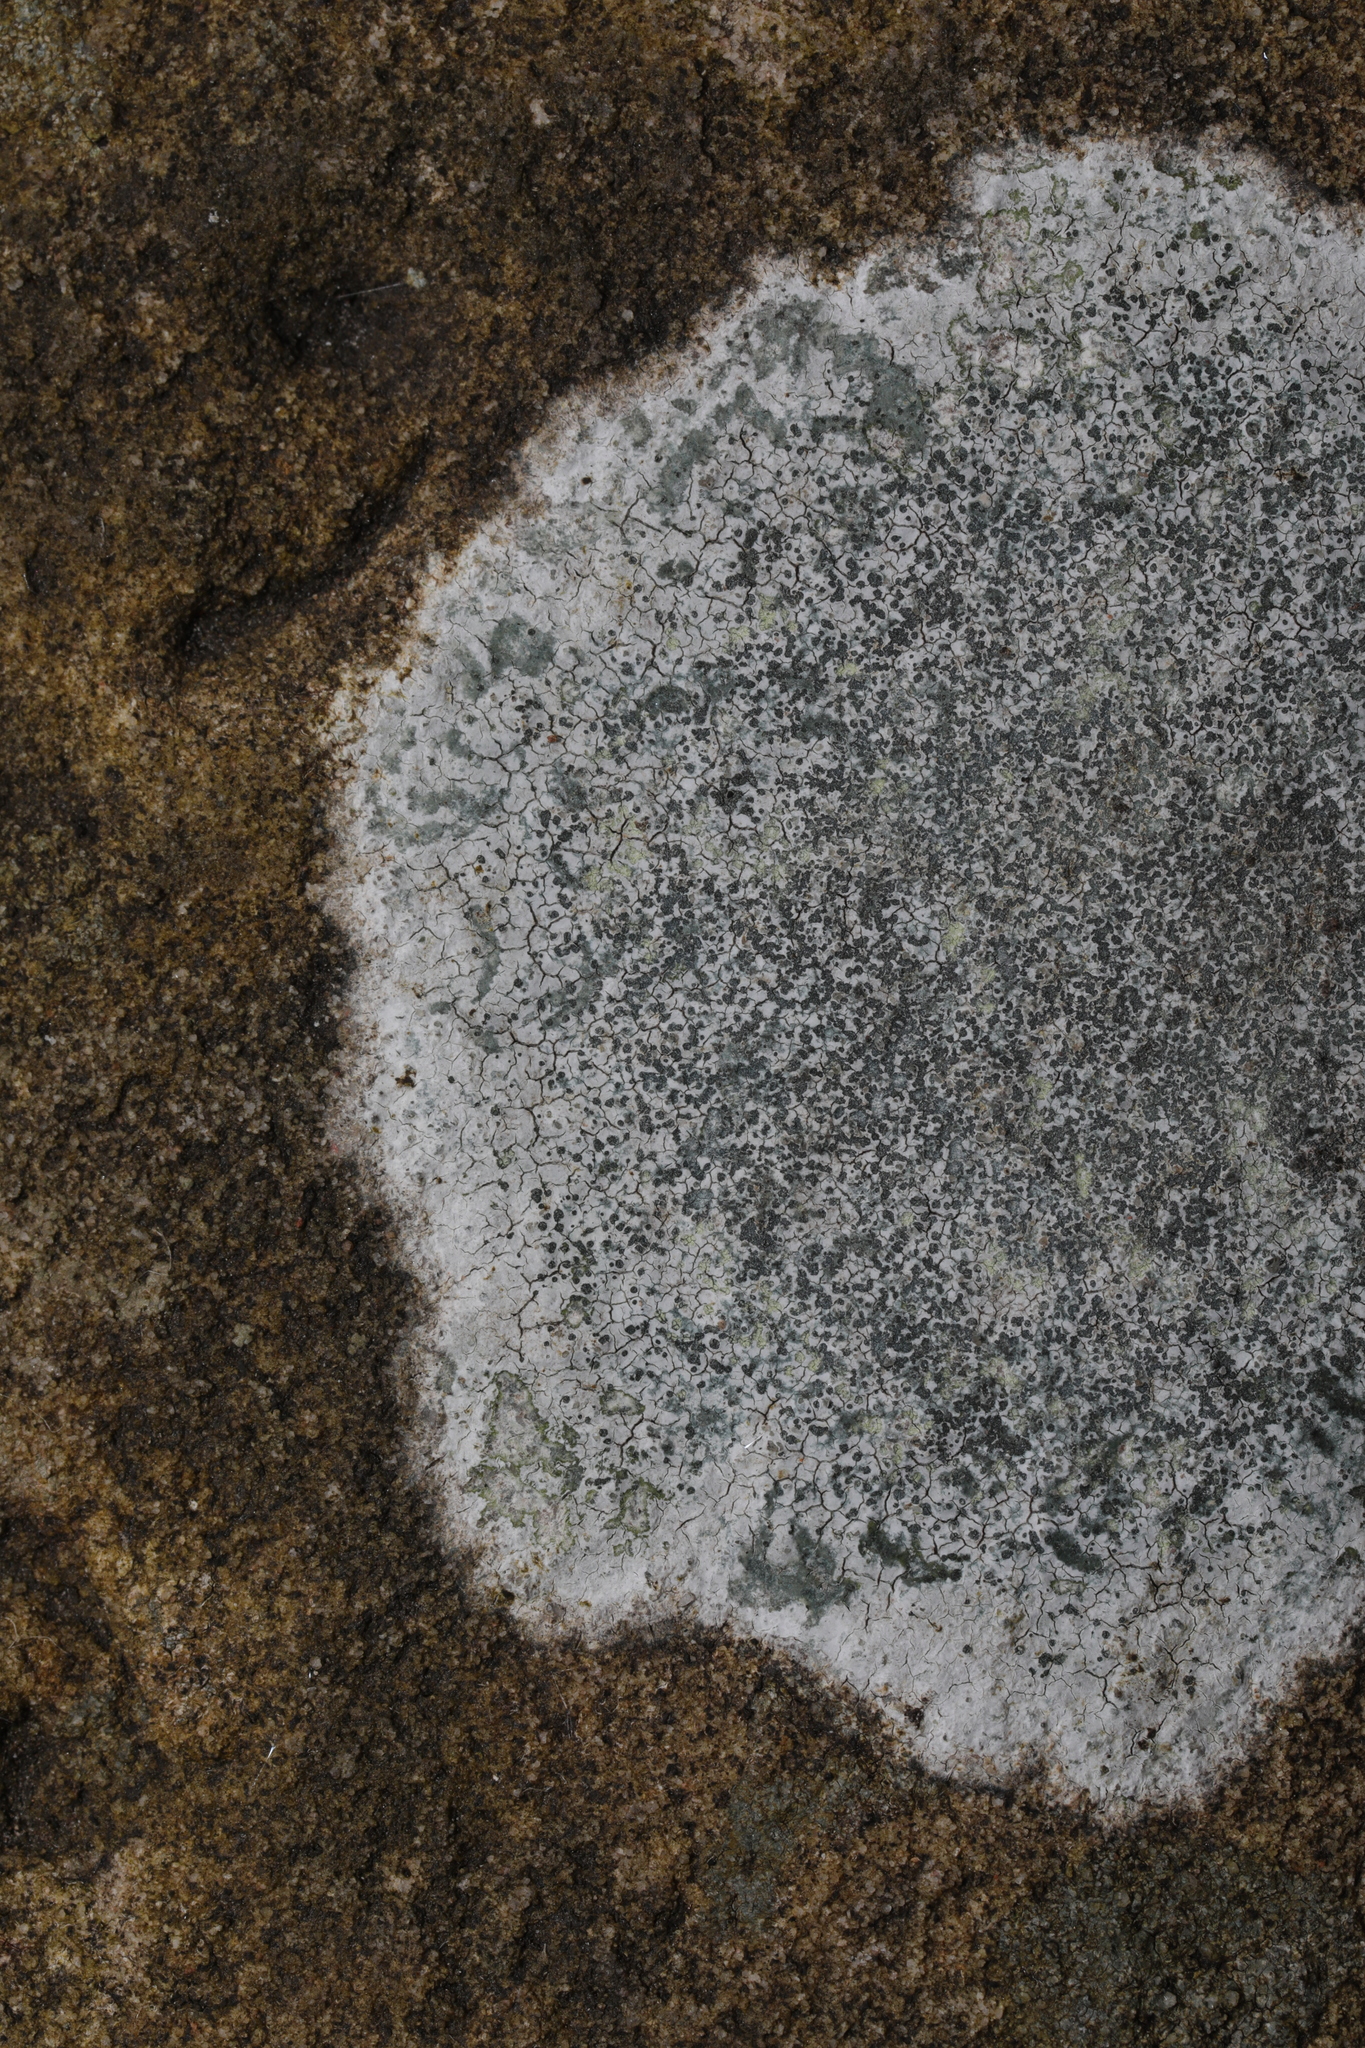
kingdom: Fungi
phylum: Ascomycota
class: Lecanoromycetes
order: Lecideales
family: Lecideaceae
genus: Porpidia
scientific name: Porpidia tuberculosa
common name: Boulder lichen
